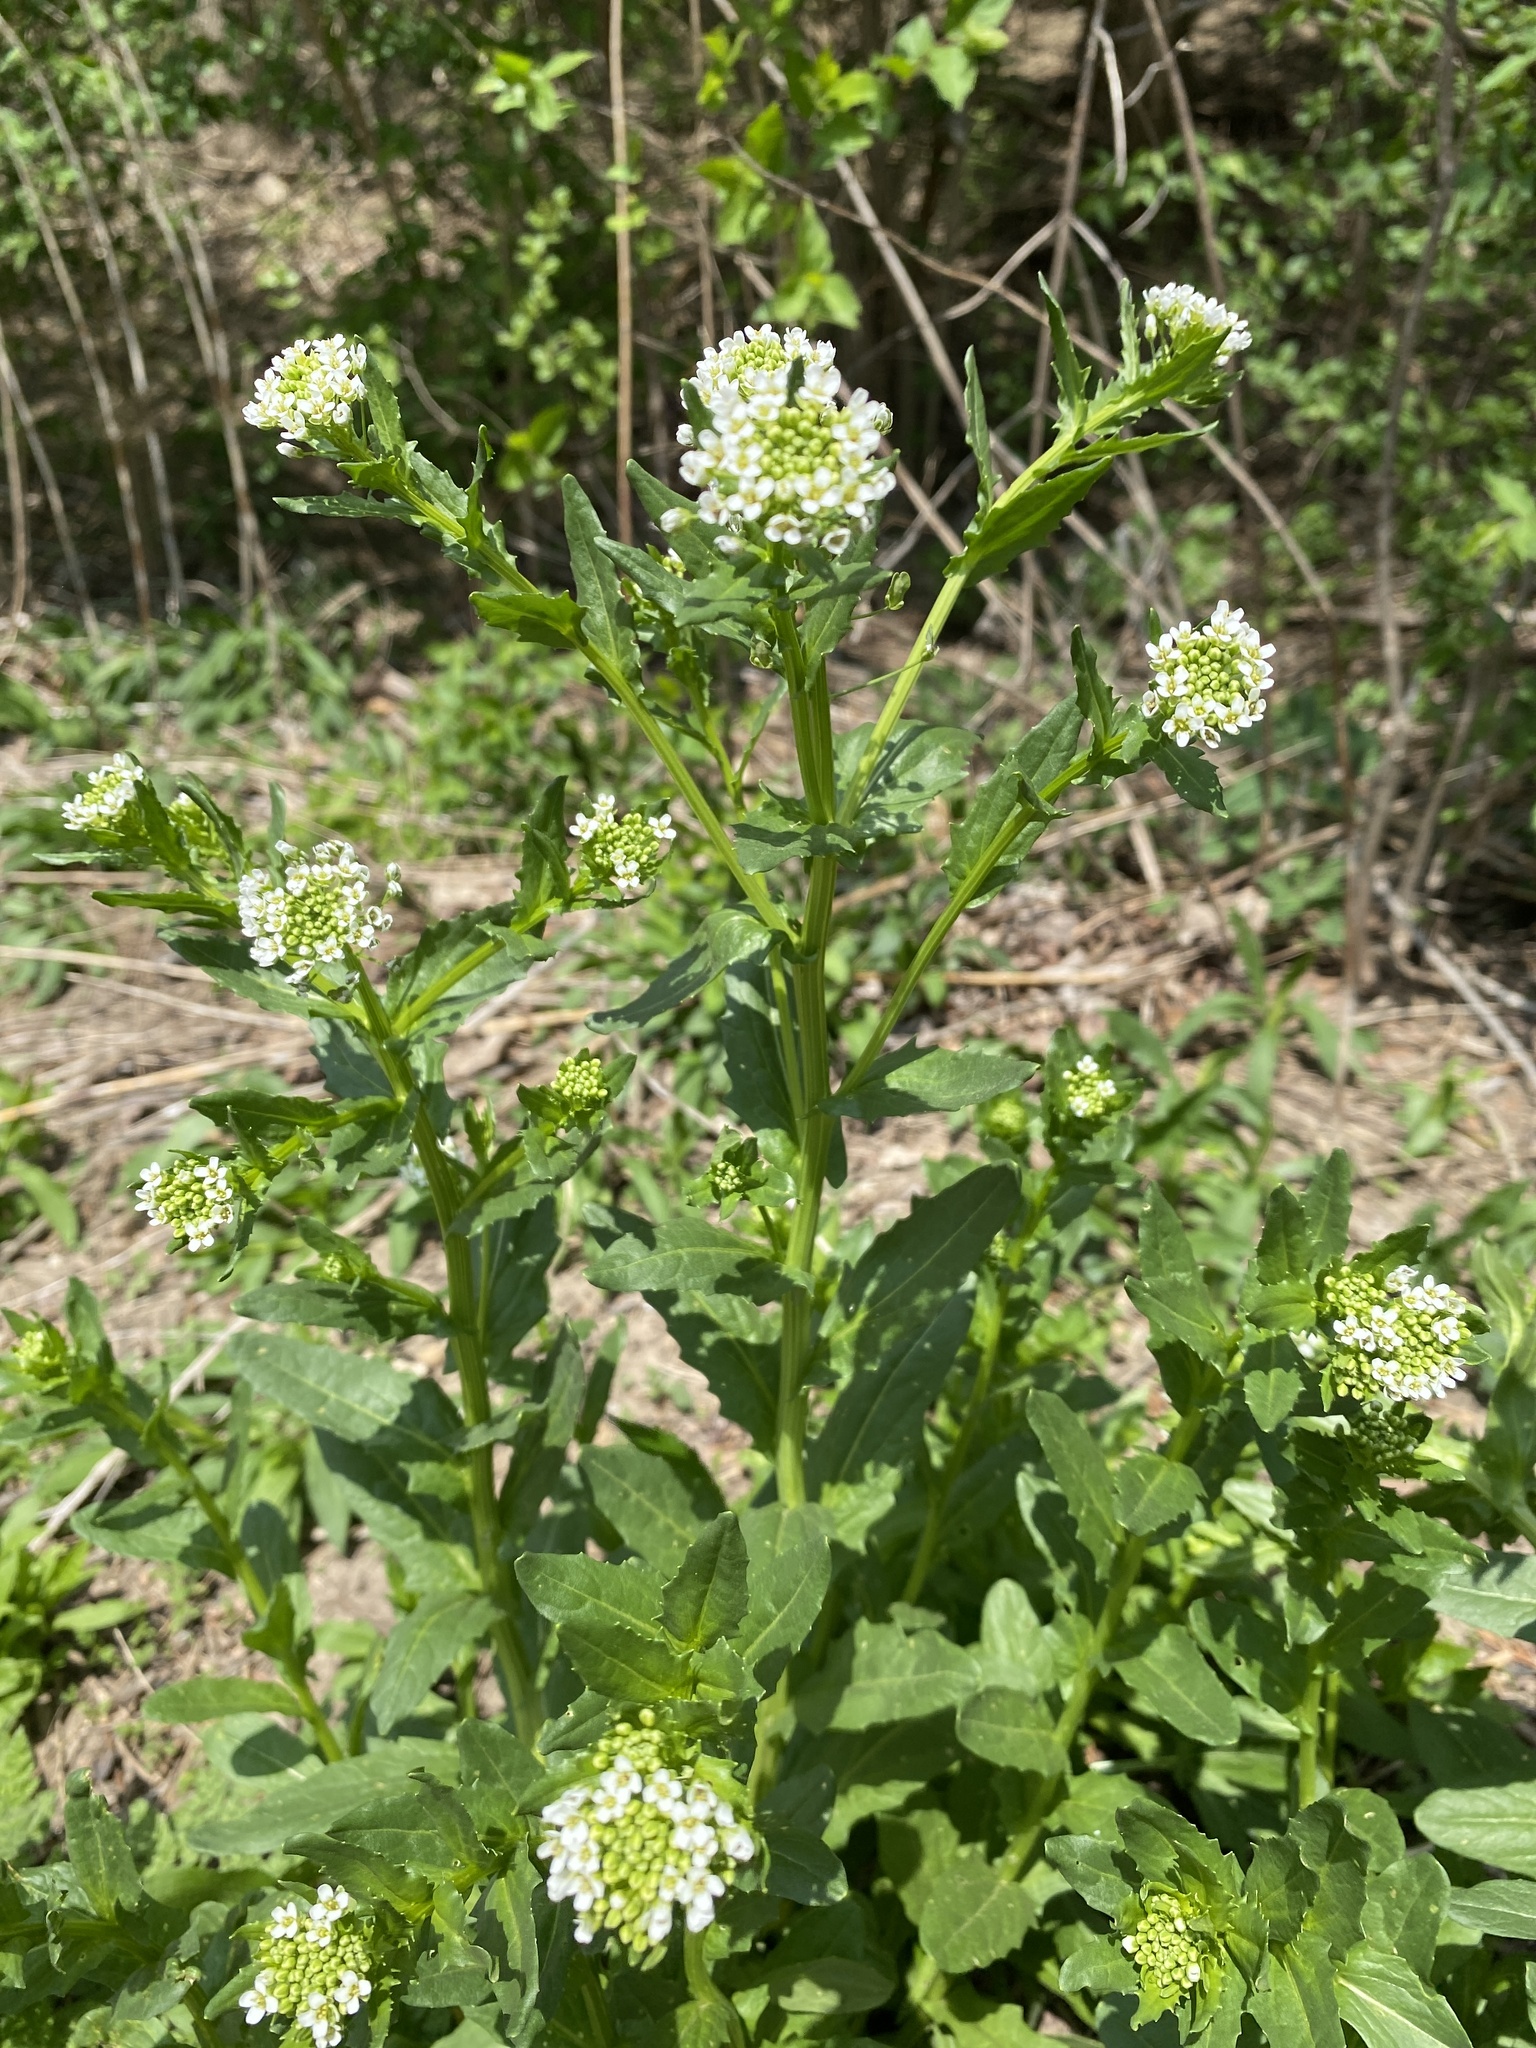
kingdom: Plantae
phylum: Tracheophyta
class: Magnoliopsida
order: Brassicales
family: Brassicaceae
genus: Thlaspi
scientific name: Thlaspi arvense
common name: Field pennycress
